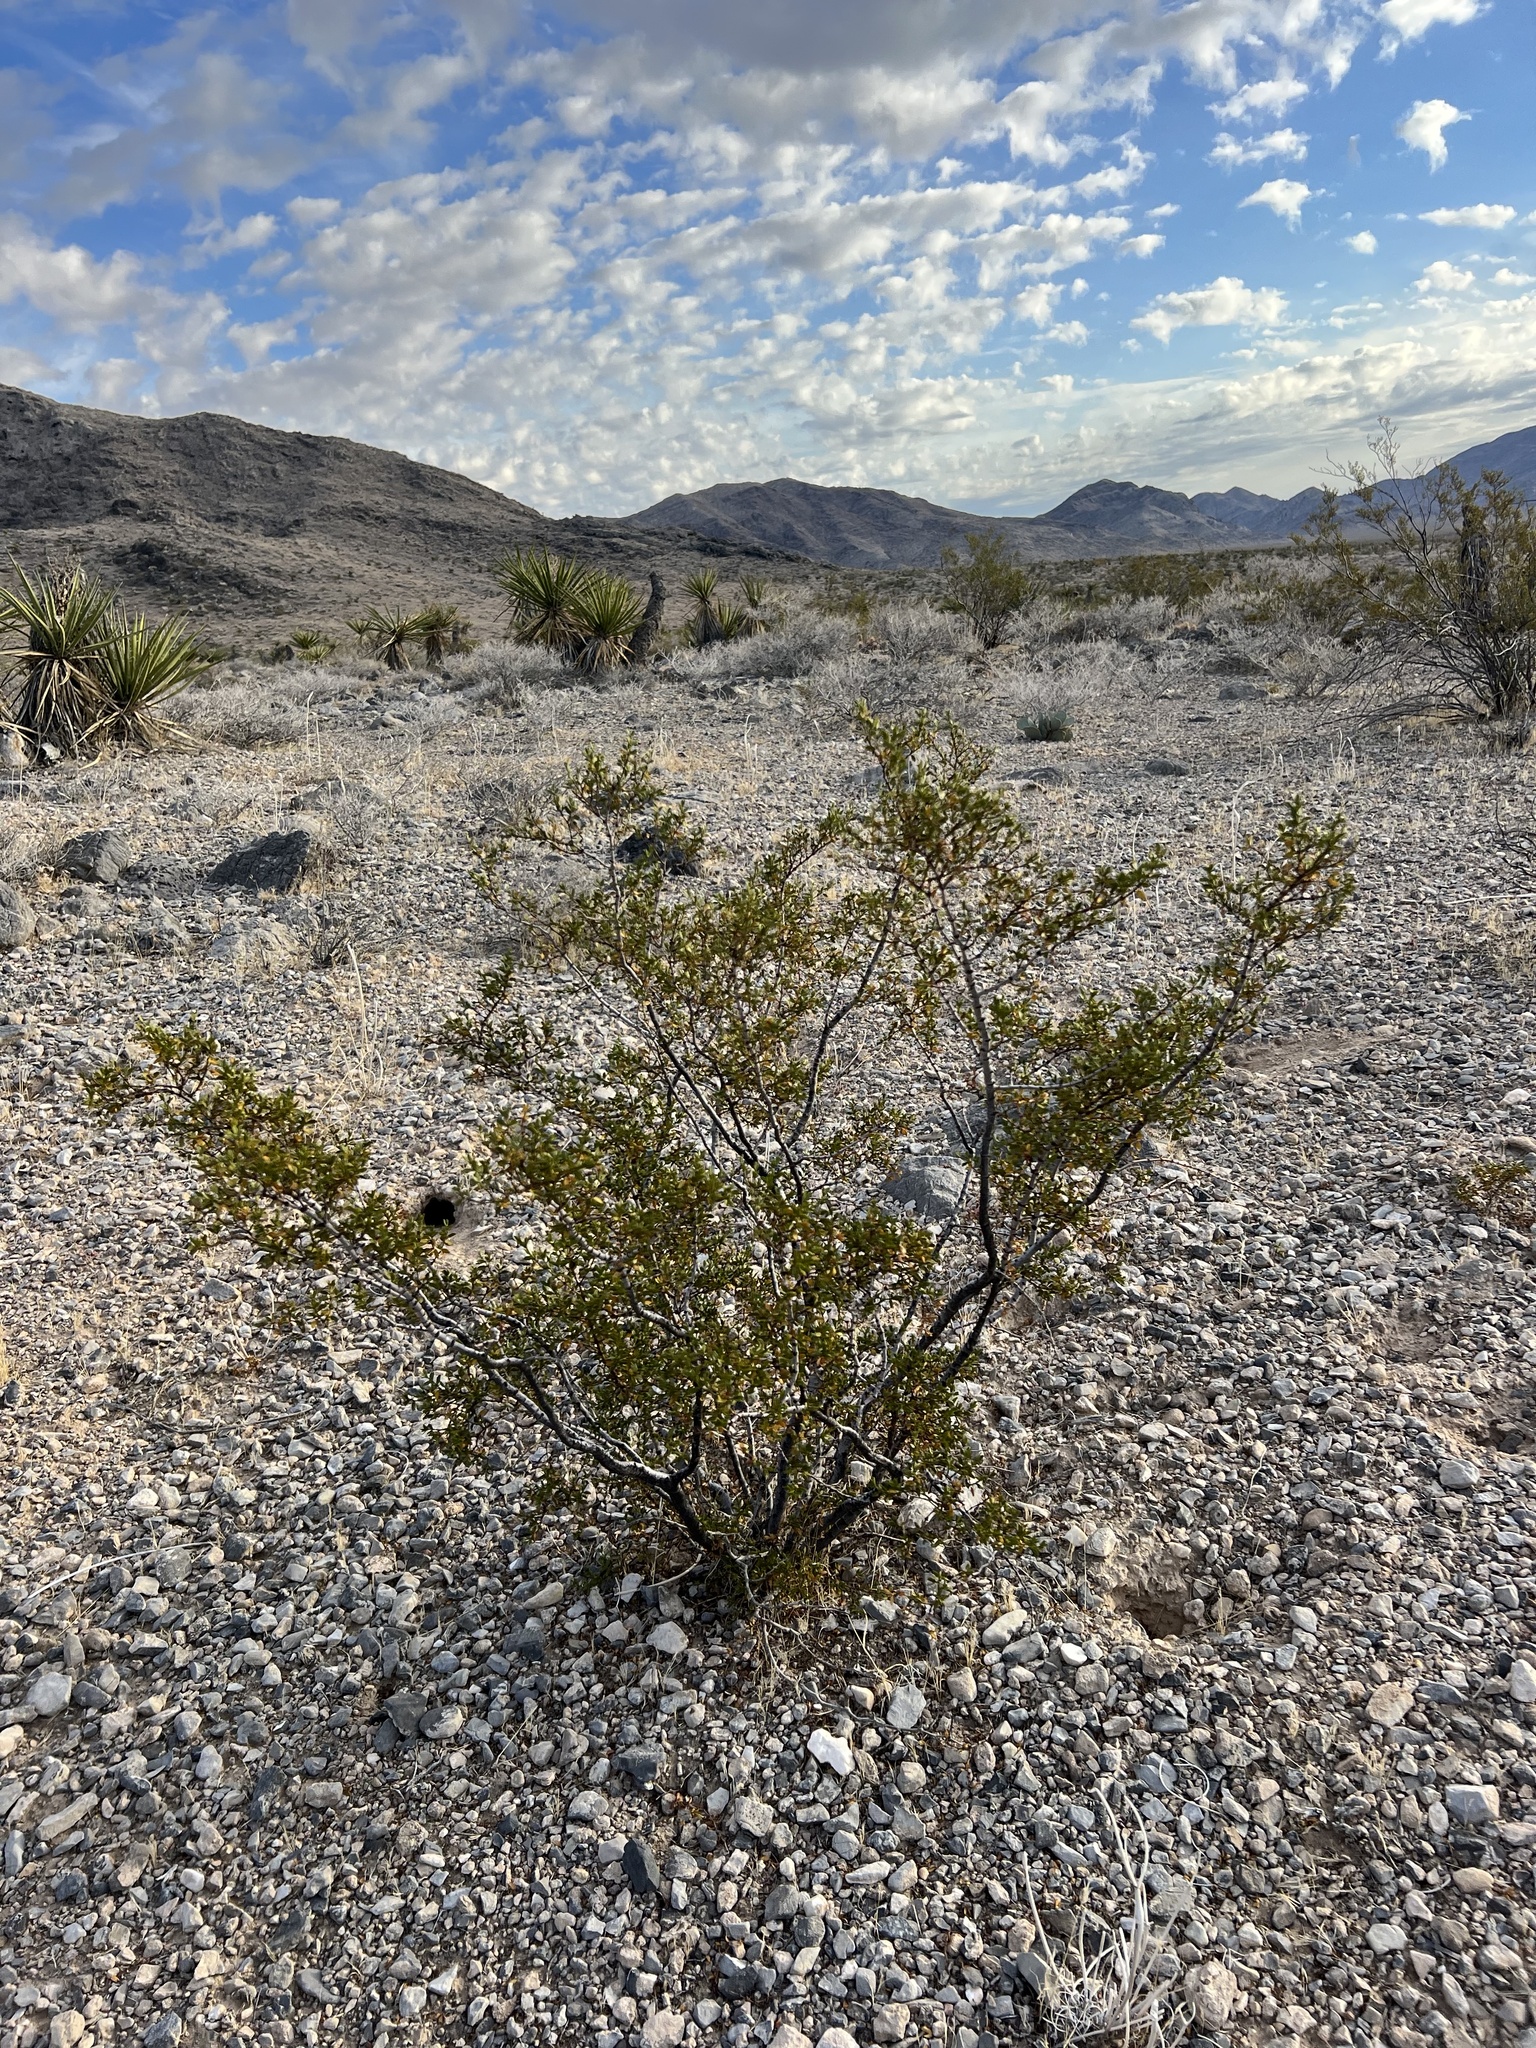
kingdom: Plantae
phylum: Tracheophyta
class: Magnoliopsida
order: Zygophyllales
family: Zygophyllaceae
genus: Larrea
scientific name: Larrea tridentata
